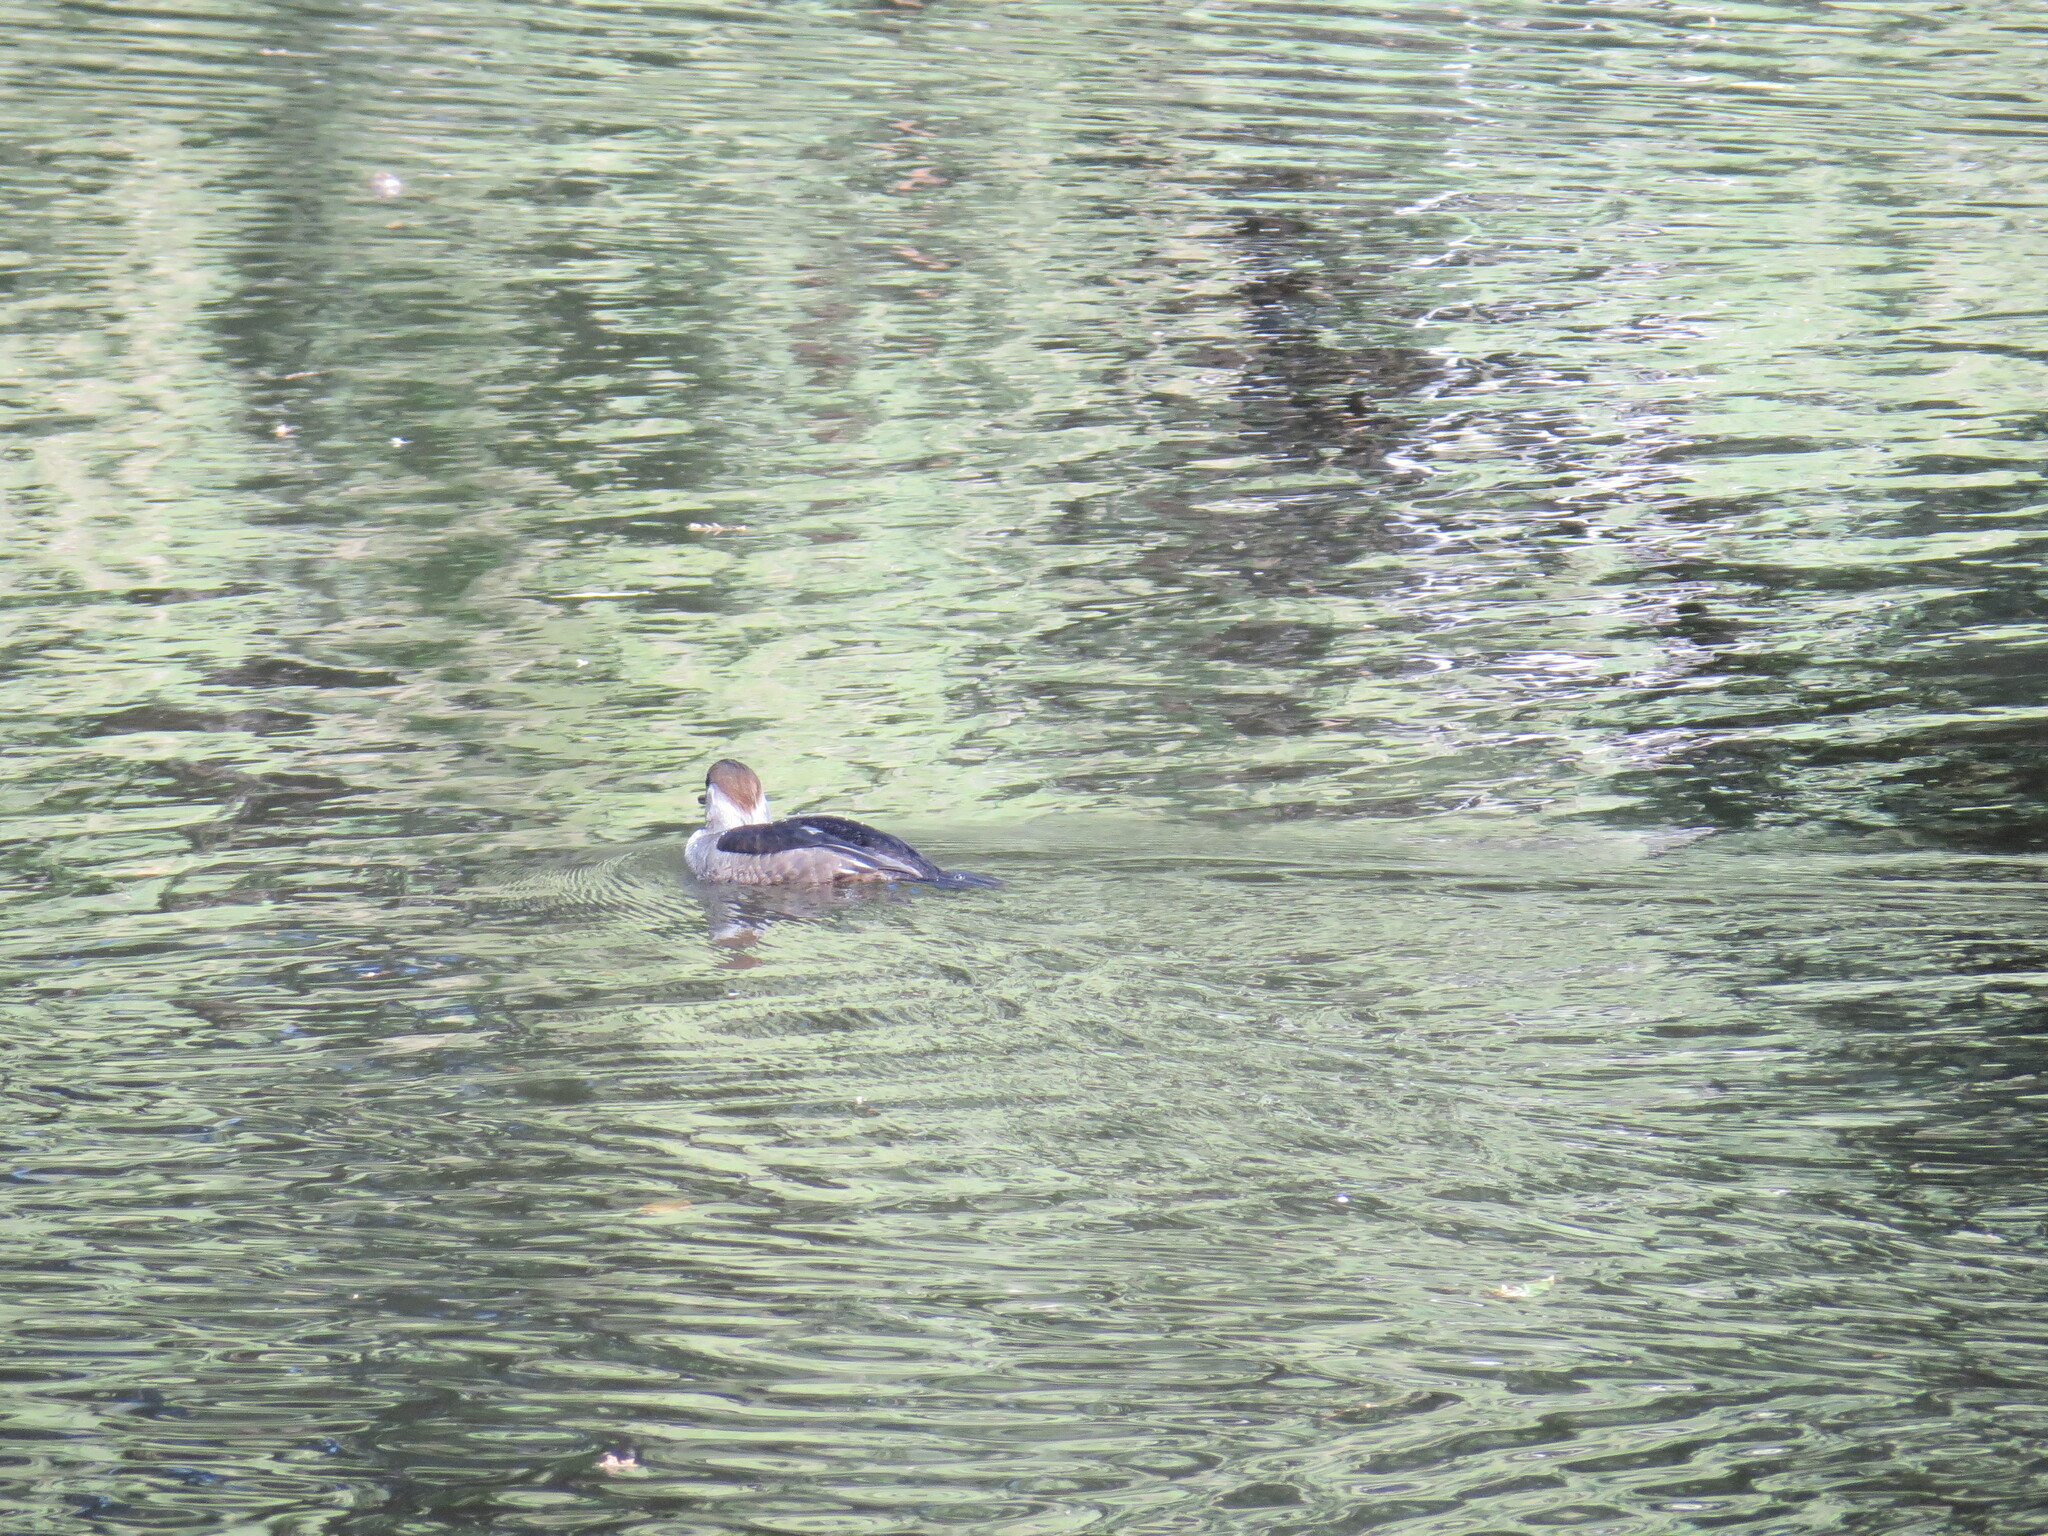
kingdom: Animalia
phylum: Chordata
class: Aves
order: Anseriformes
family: Anatidae
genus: Lophodytes
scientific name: Lophodytes cucullatus
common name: Hooded merganser
